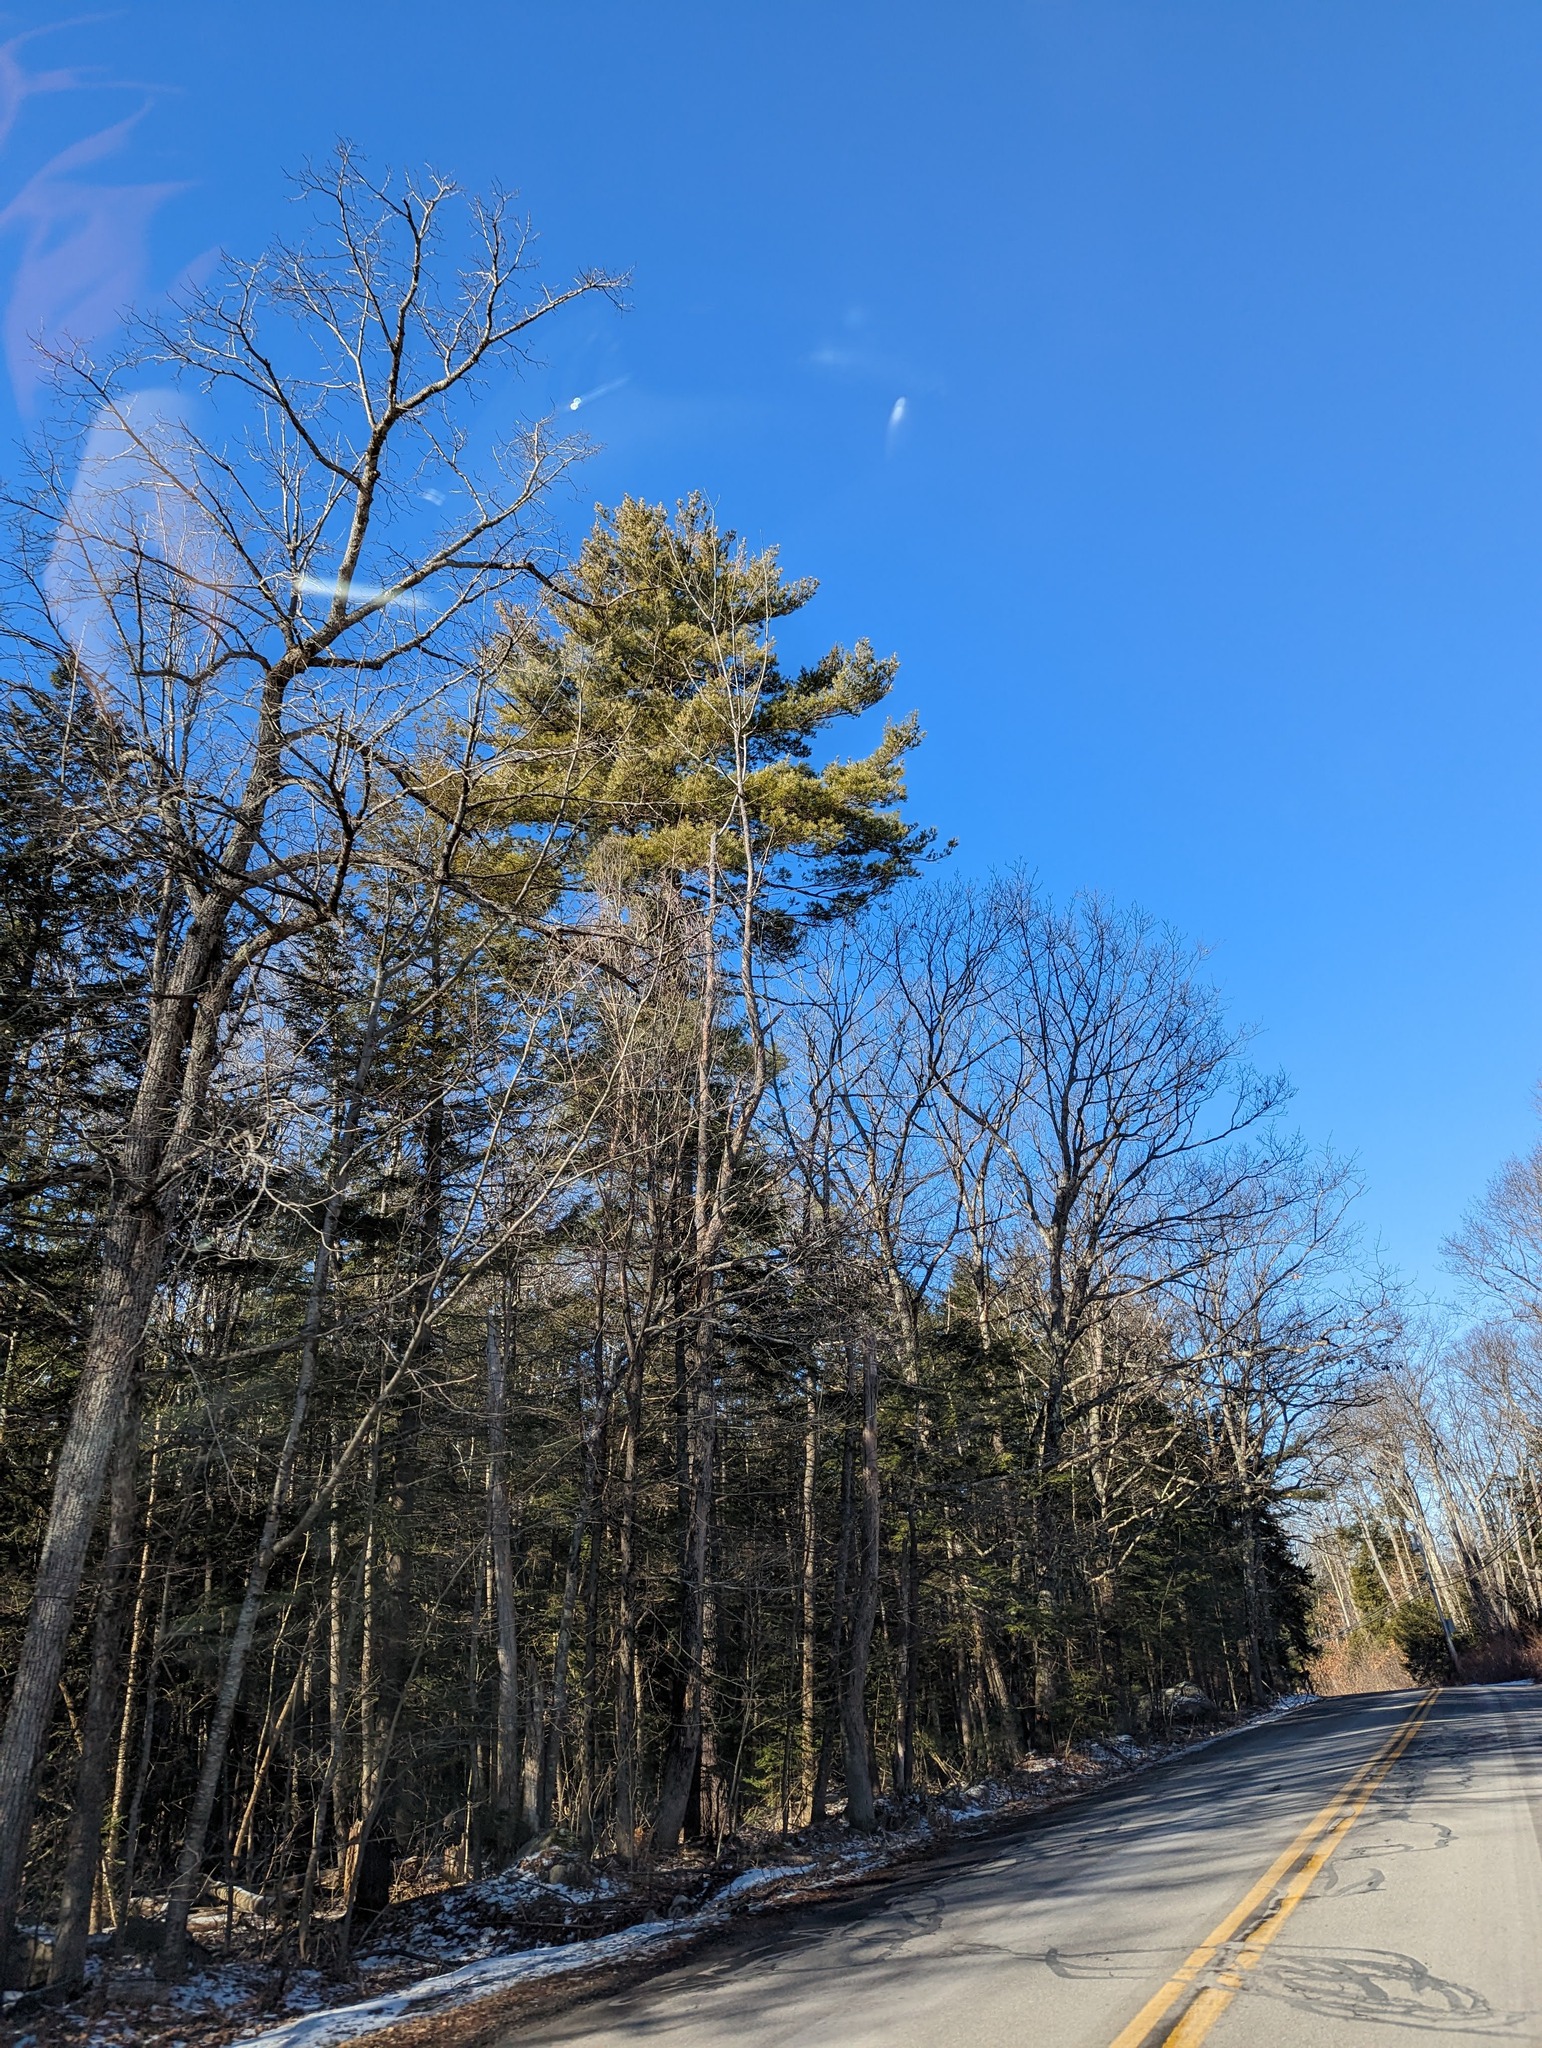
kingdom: Plantae
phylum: Tracheophyta
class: Pinopsida
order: Pinales
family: Pinaceae
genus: Pinus
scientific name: Pinus strobus
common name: Weymouth pine
